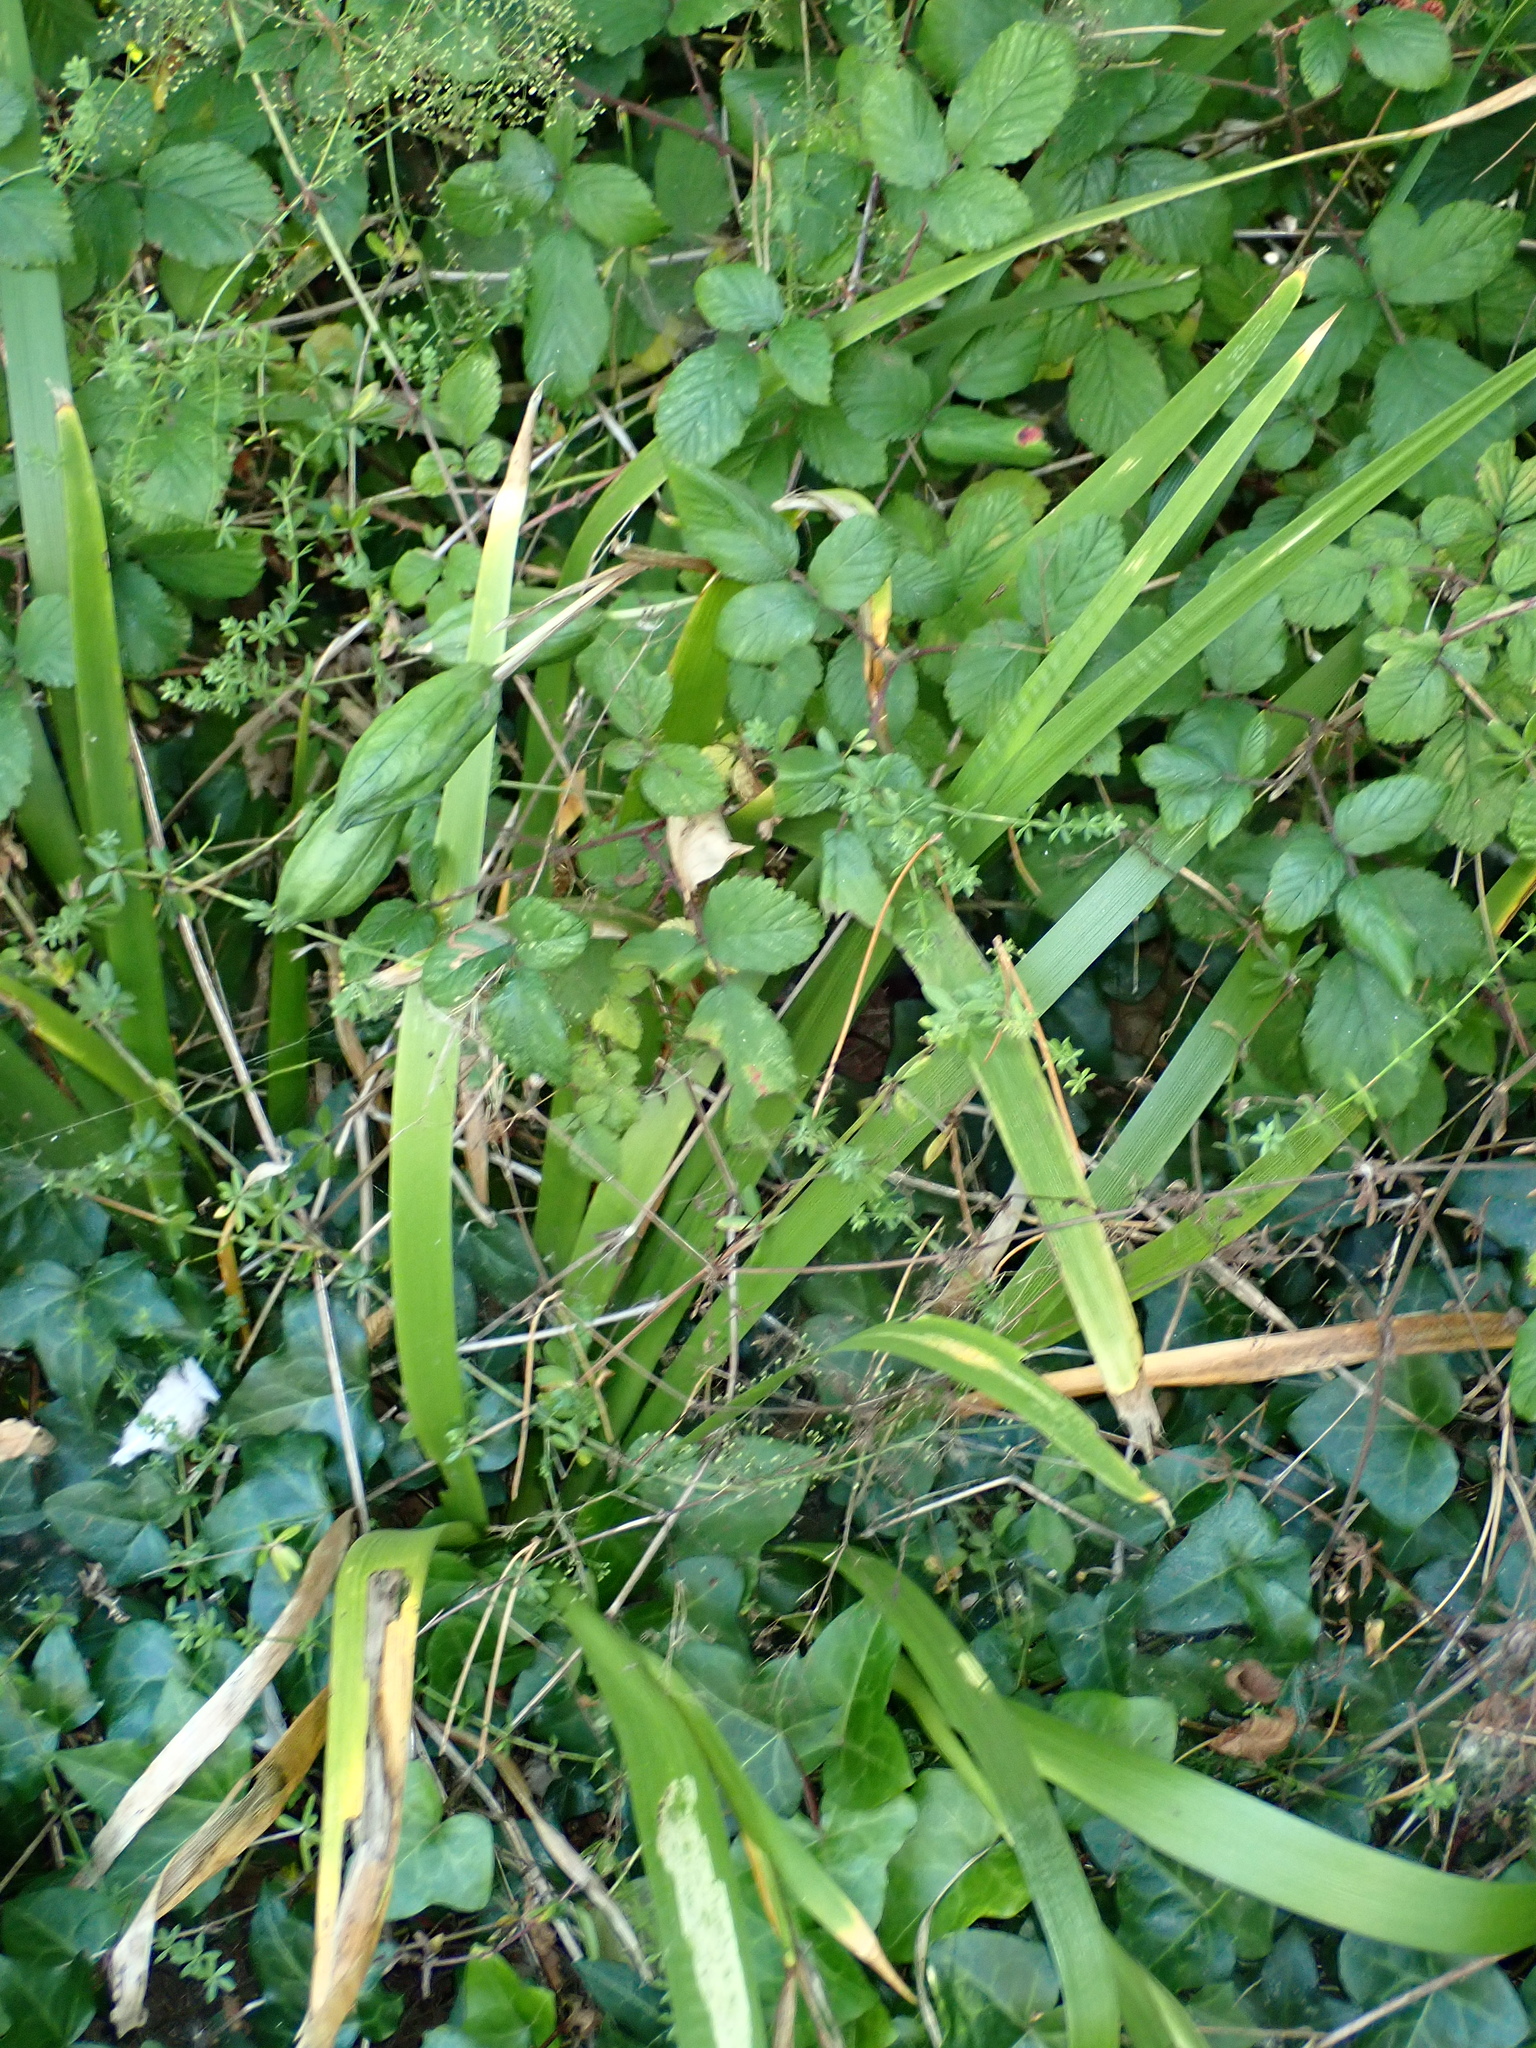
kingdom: Plantae
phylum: Tracheophyta
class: Liliopsida
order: Asparagales
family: Iridaceae
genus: Iris
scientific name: Iris foetidissima
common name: Stinking iris
